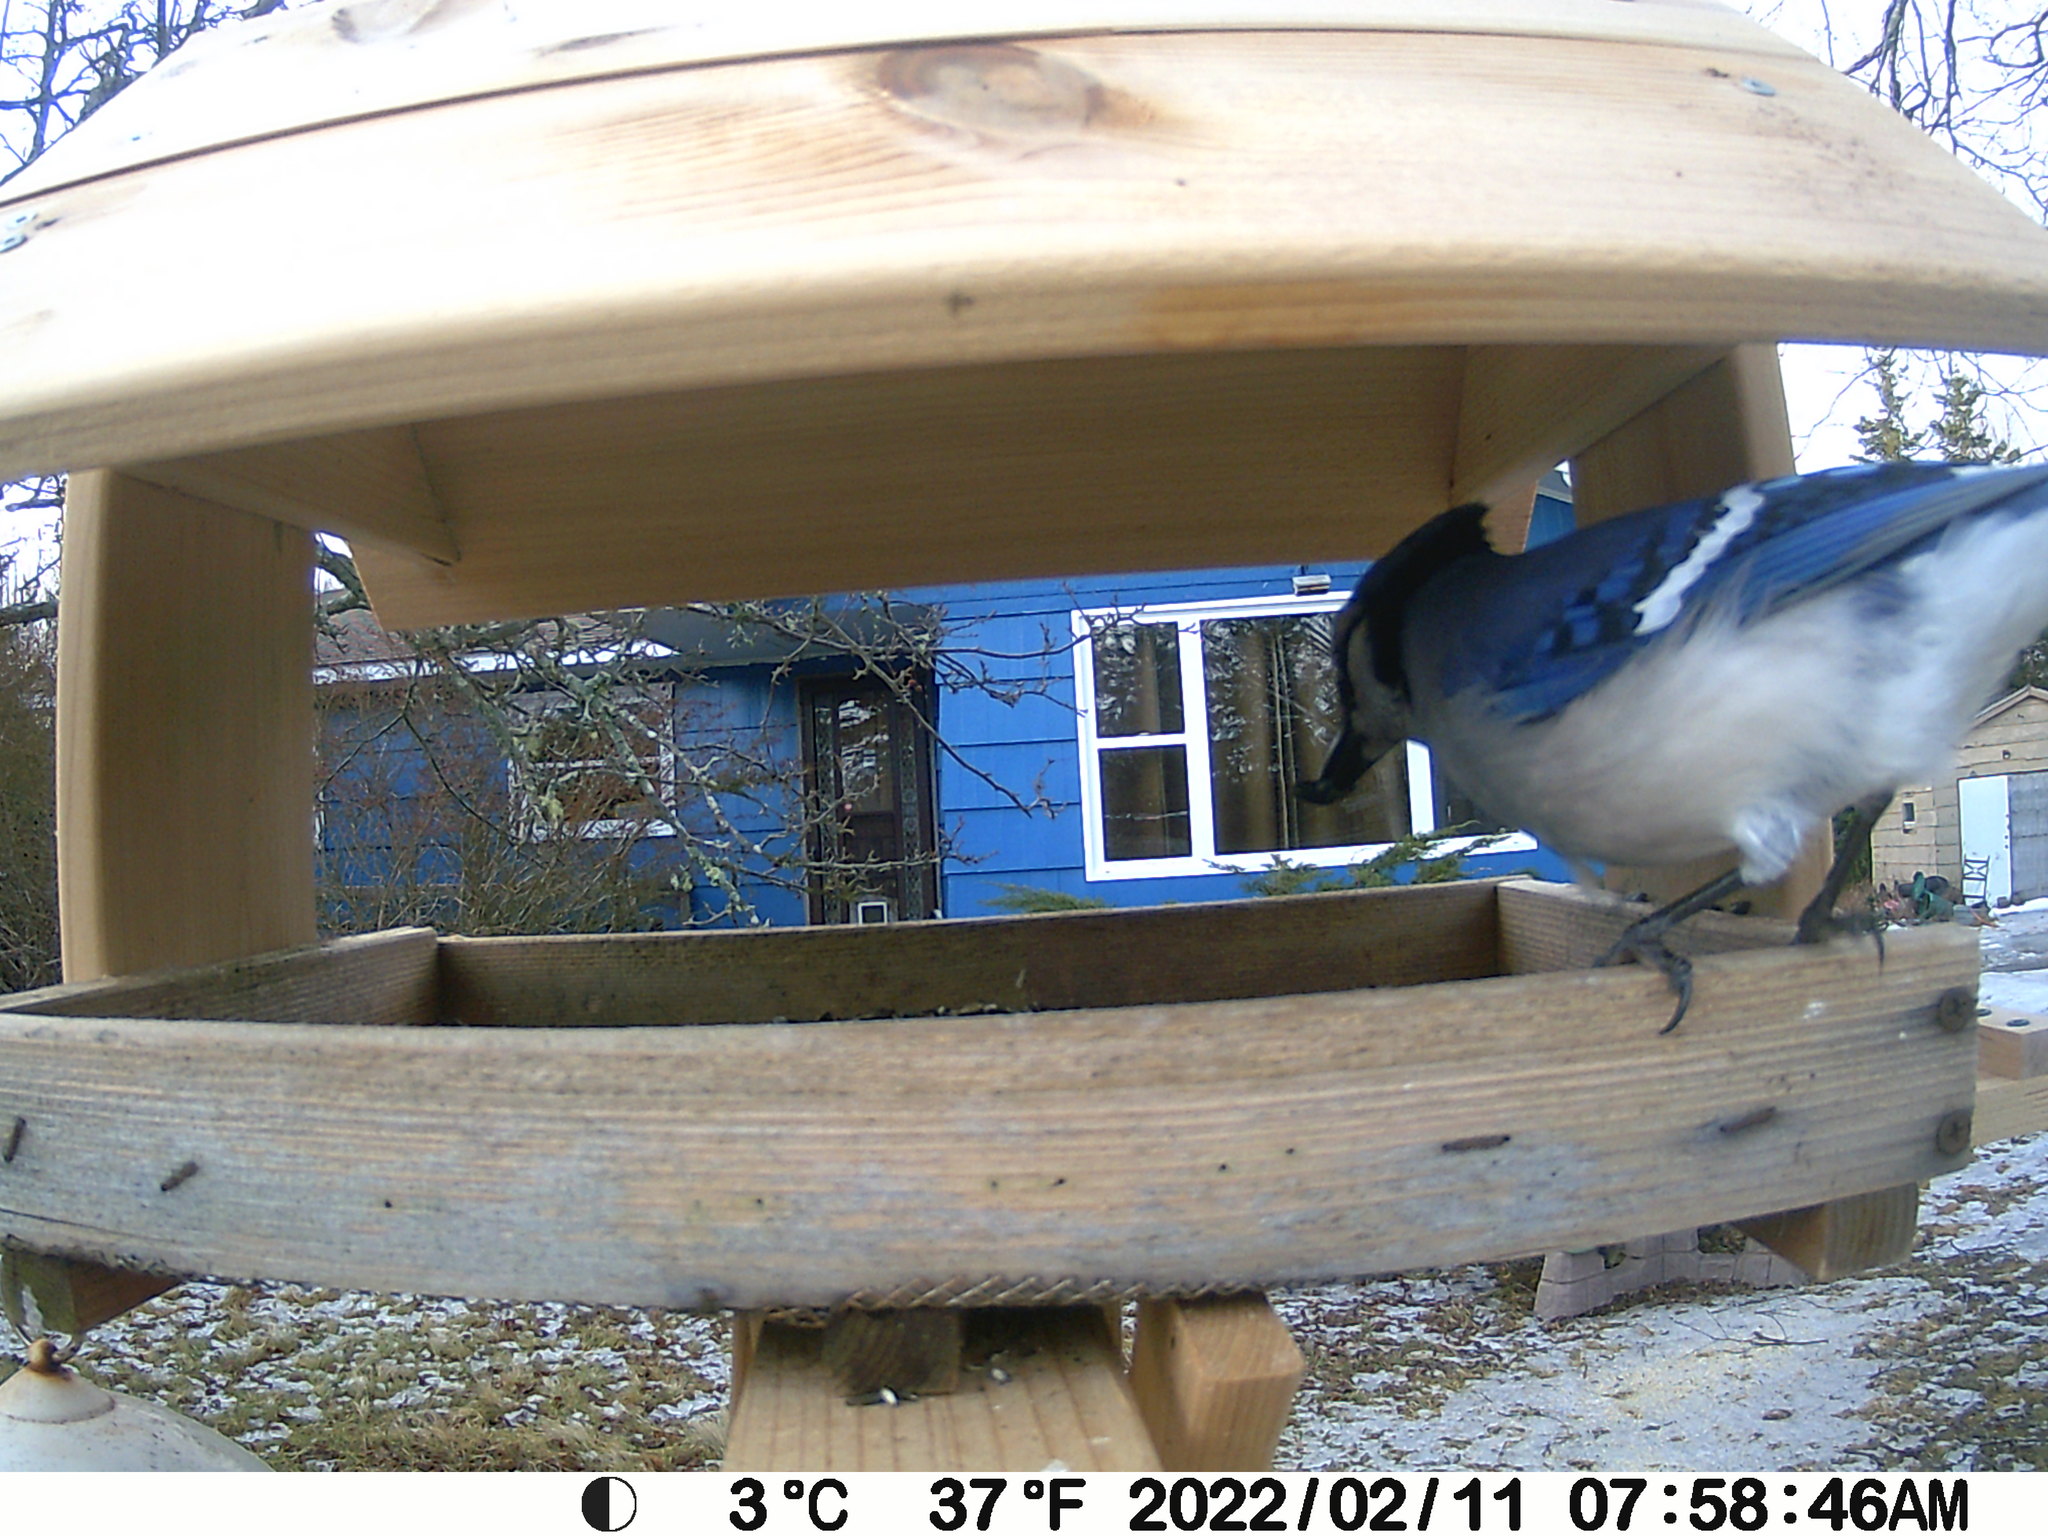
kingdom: Animalia
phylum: Chordata
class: Aves
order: Passeriformes
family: Corvidae
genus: Cyanocitta
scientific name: Cyanocitta cristata
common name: Blue jay
